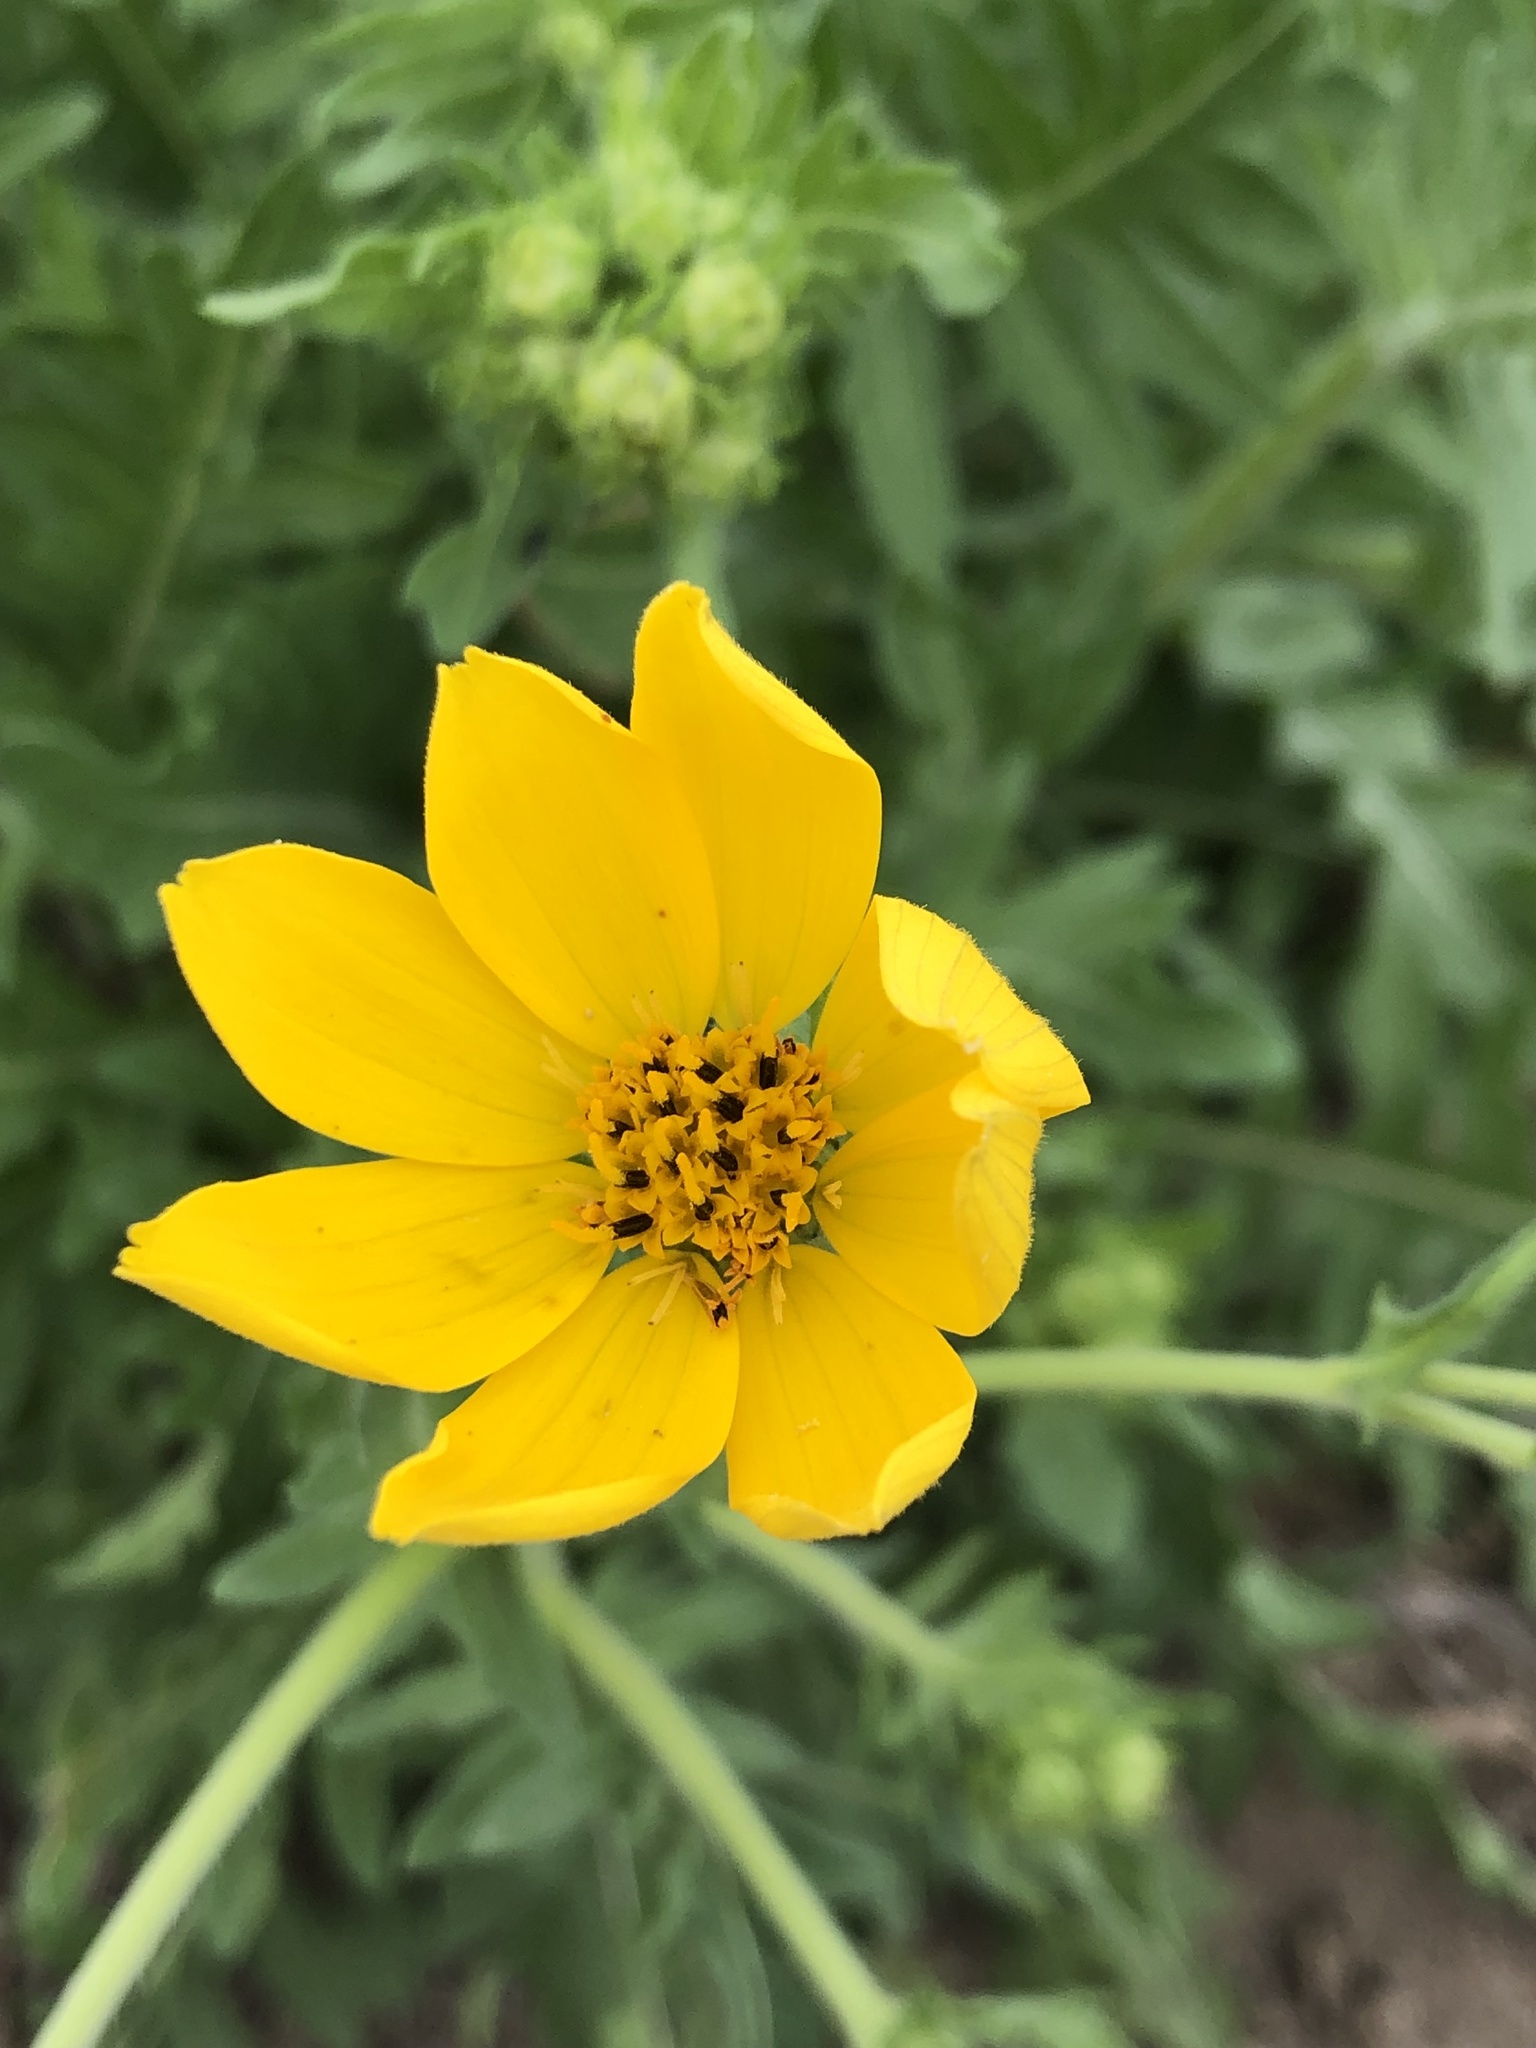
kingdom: Plantae
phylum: Tracheophyta
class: Magnoliopsida
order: Asterales
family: Asteraceae
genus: Engelmannia
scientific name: Engelmannia peristenia
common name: Engelmann's daisy
